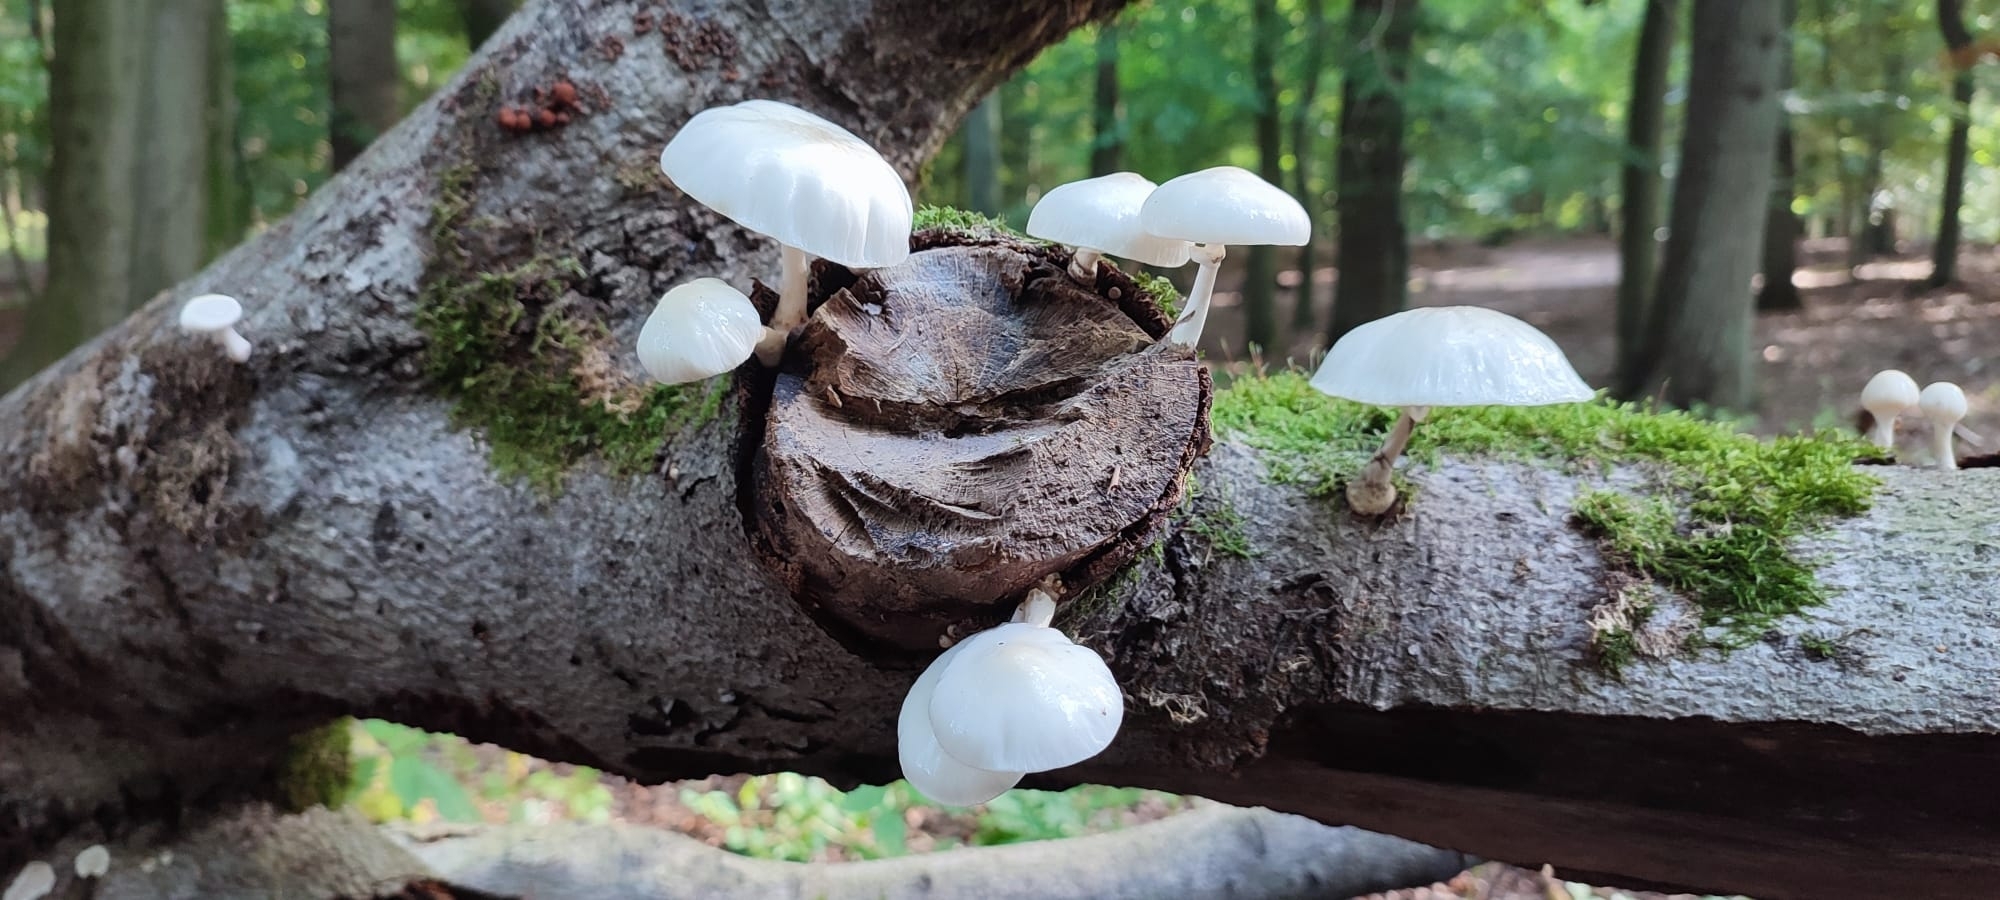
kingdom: Fungi
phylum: Basidiomycota
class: Agaricomycetes
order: Agaricales
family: Physalacriaceae
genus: Mucidula
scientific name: Mucidula mucida
